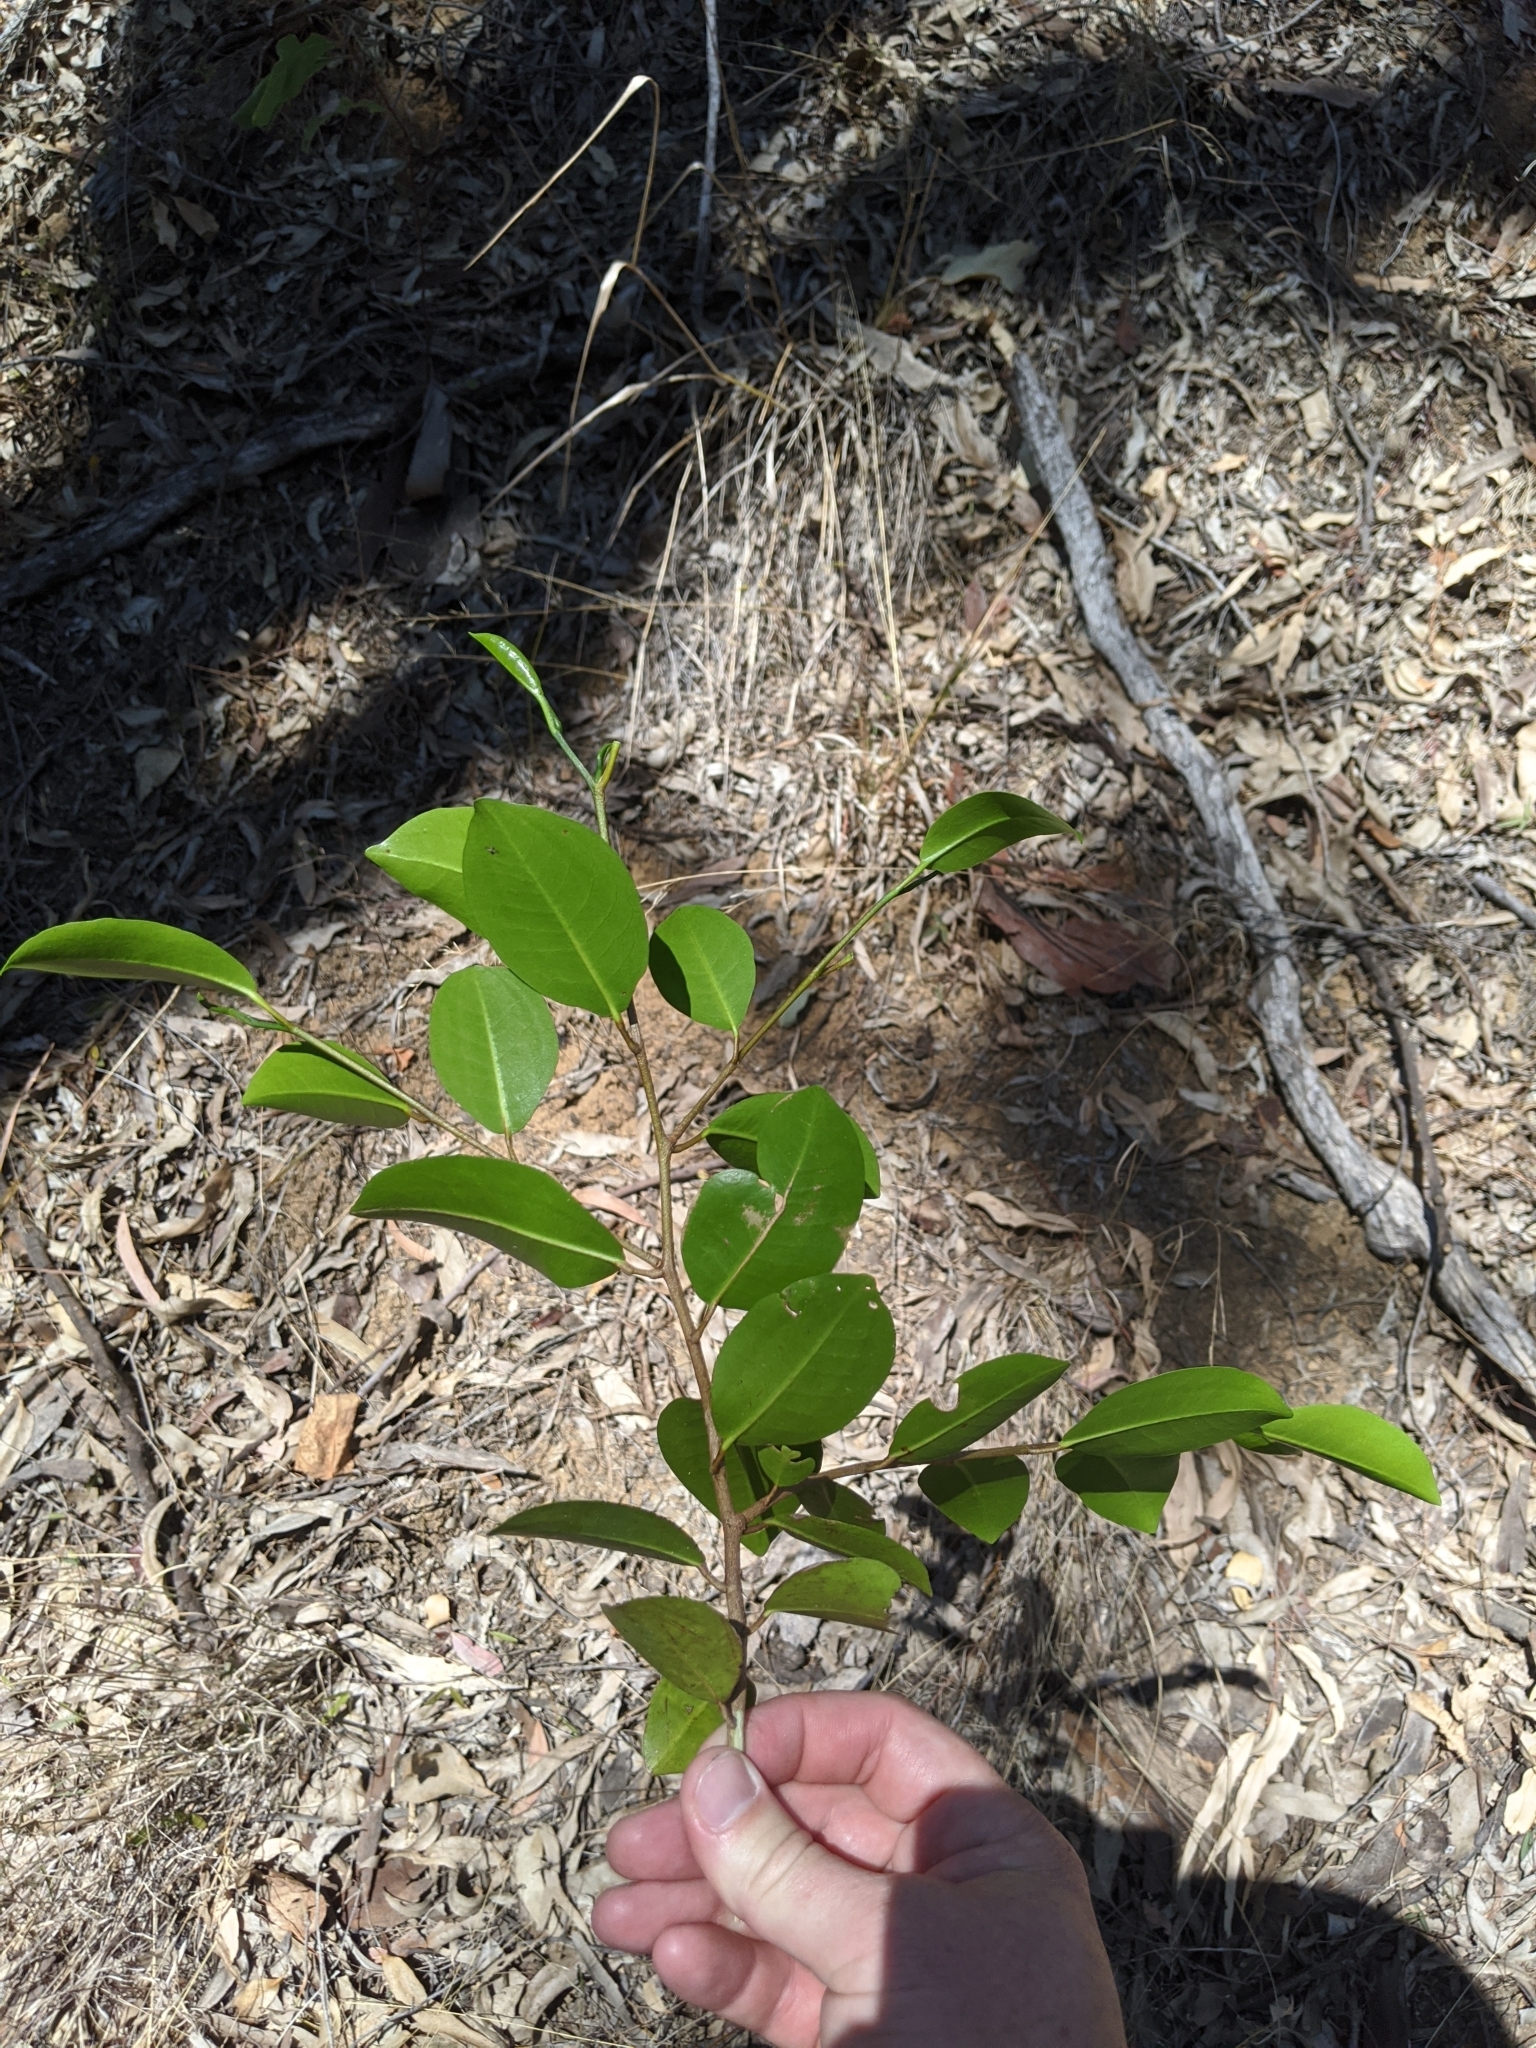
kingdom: Plantae
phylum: Tracheophyta
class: Magnoliopsida
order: Sapindales
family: Rutaceae
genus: Geijera
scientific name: Geijera salicifolia
